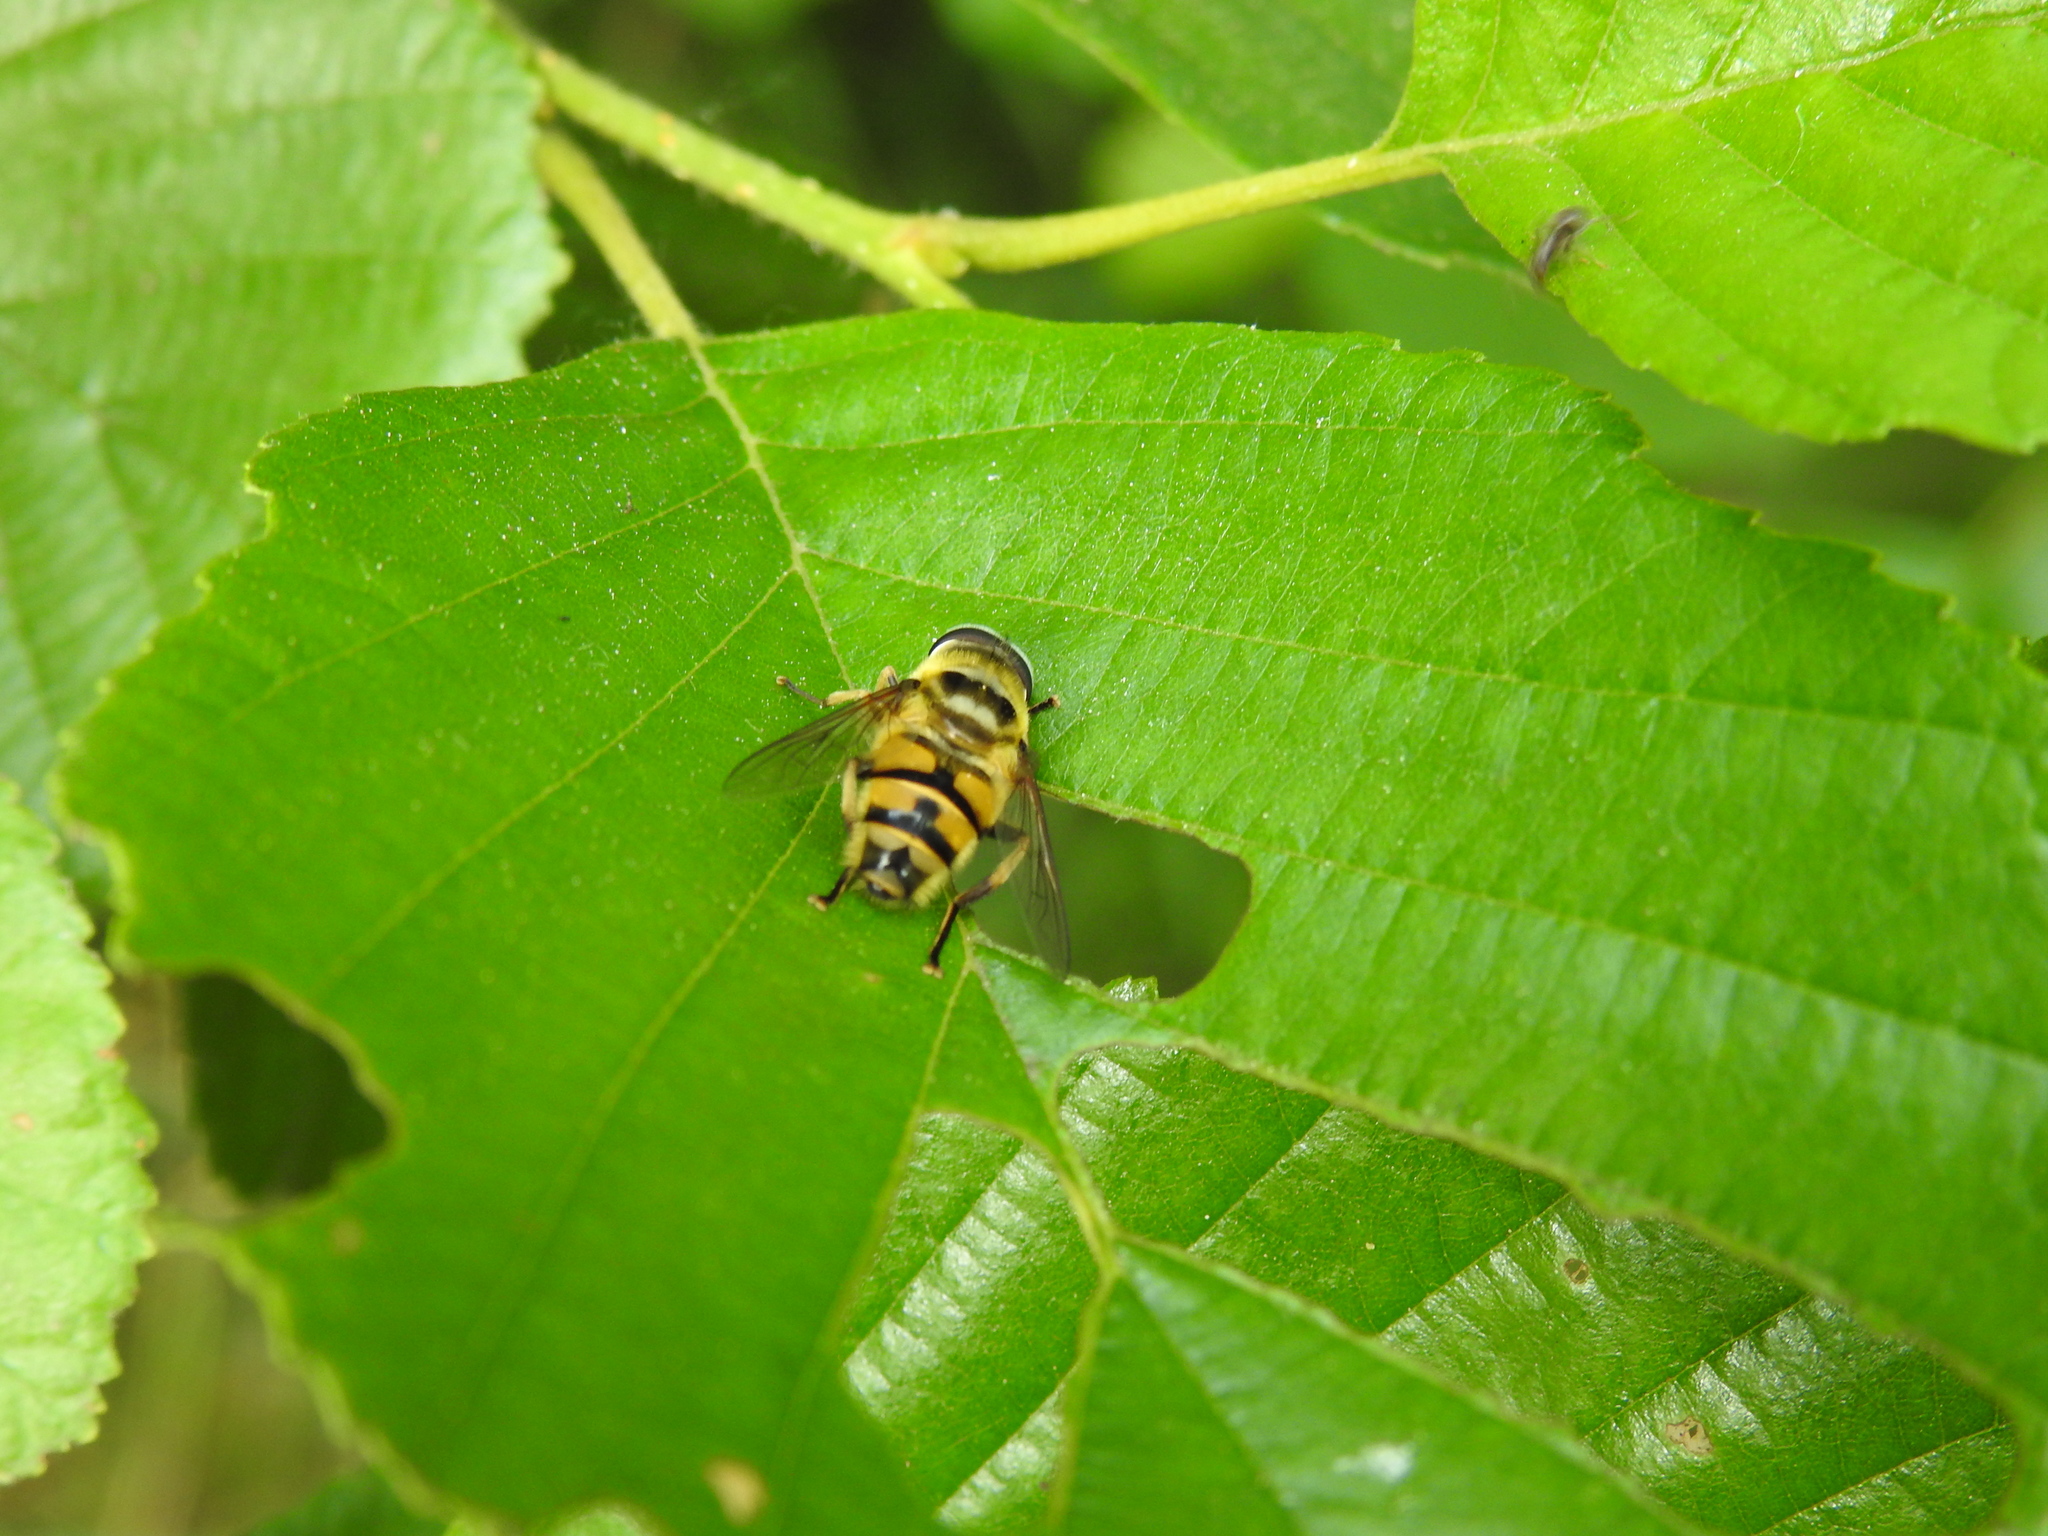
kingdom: Animalia
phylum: Arthropoda
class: Insecta
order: Diptera
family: Syrphidae
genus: Myathropa
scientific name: Myathropa florea
